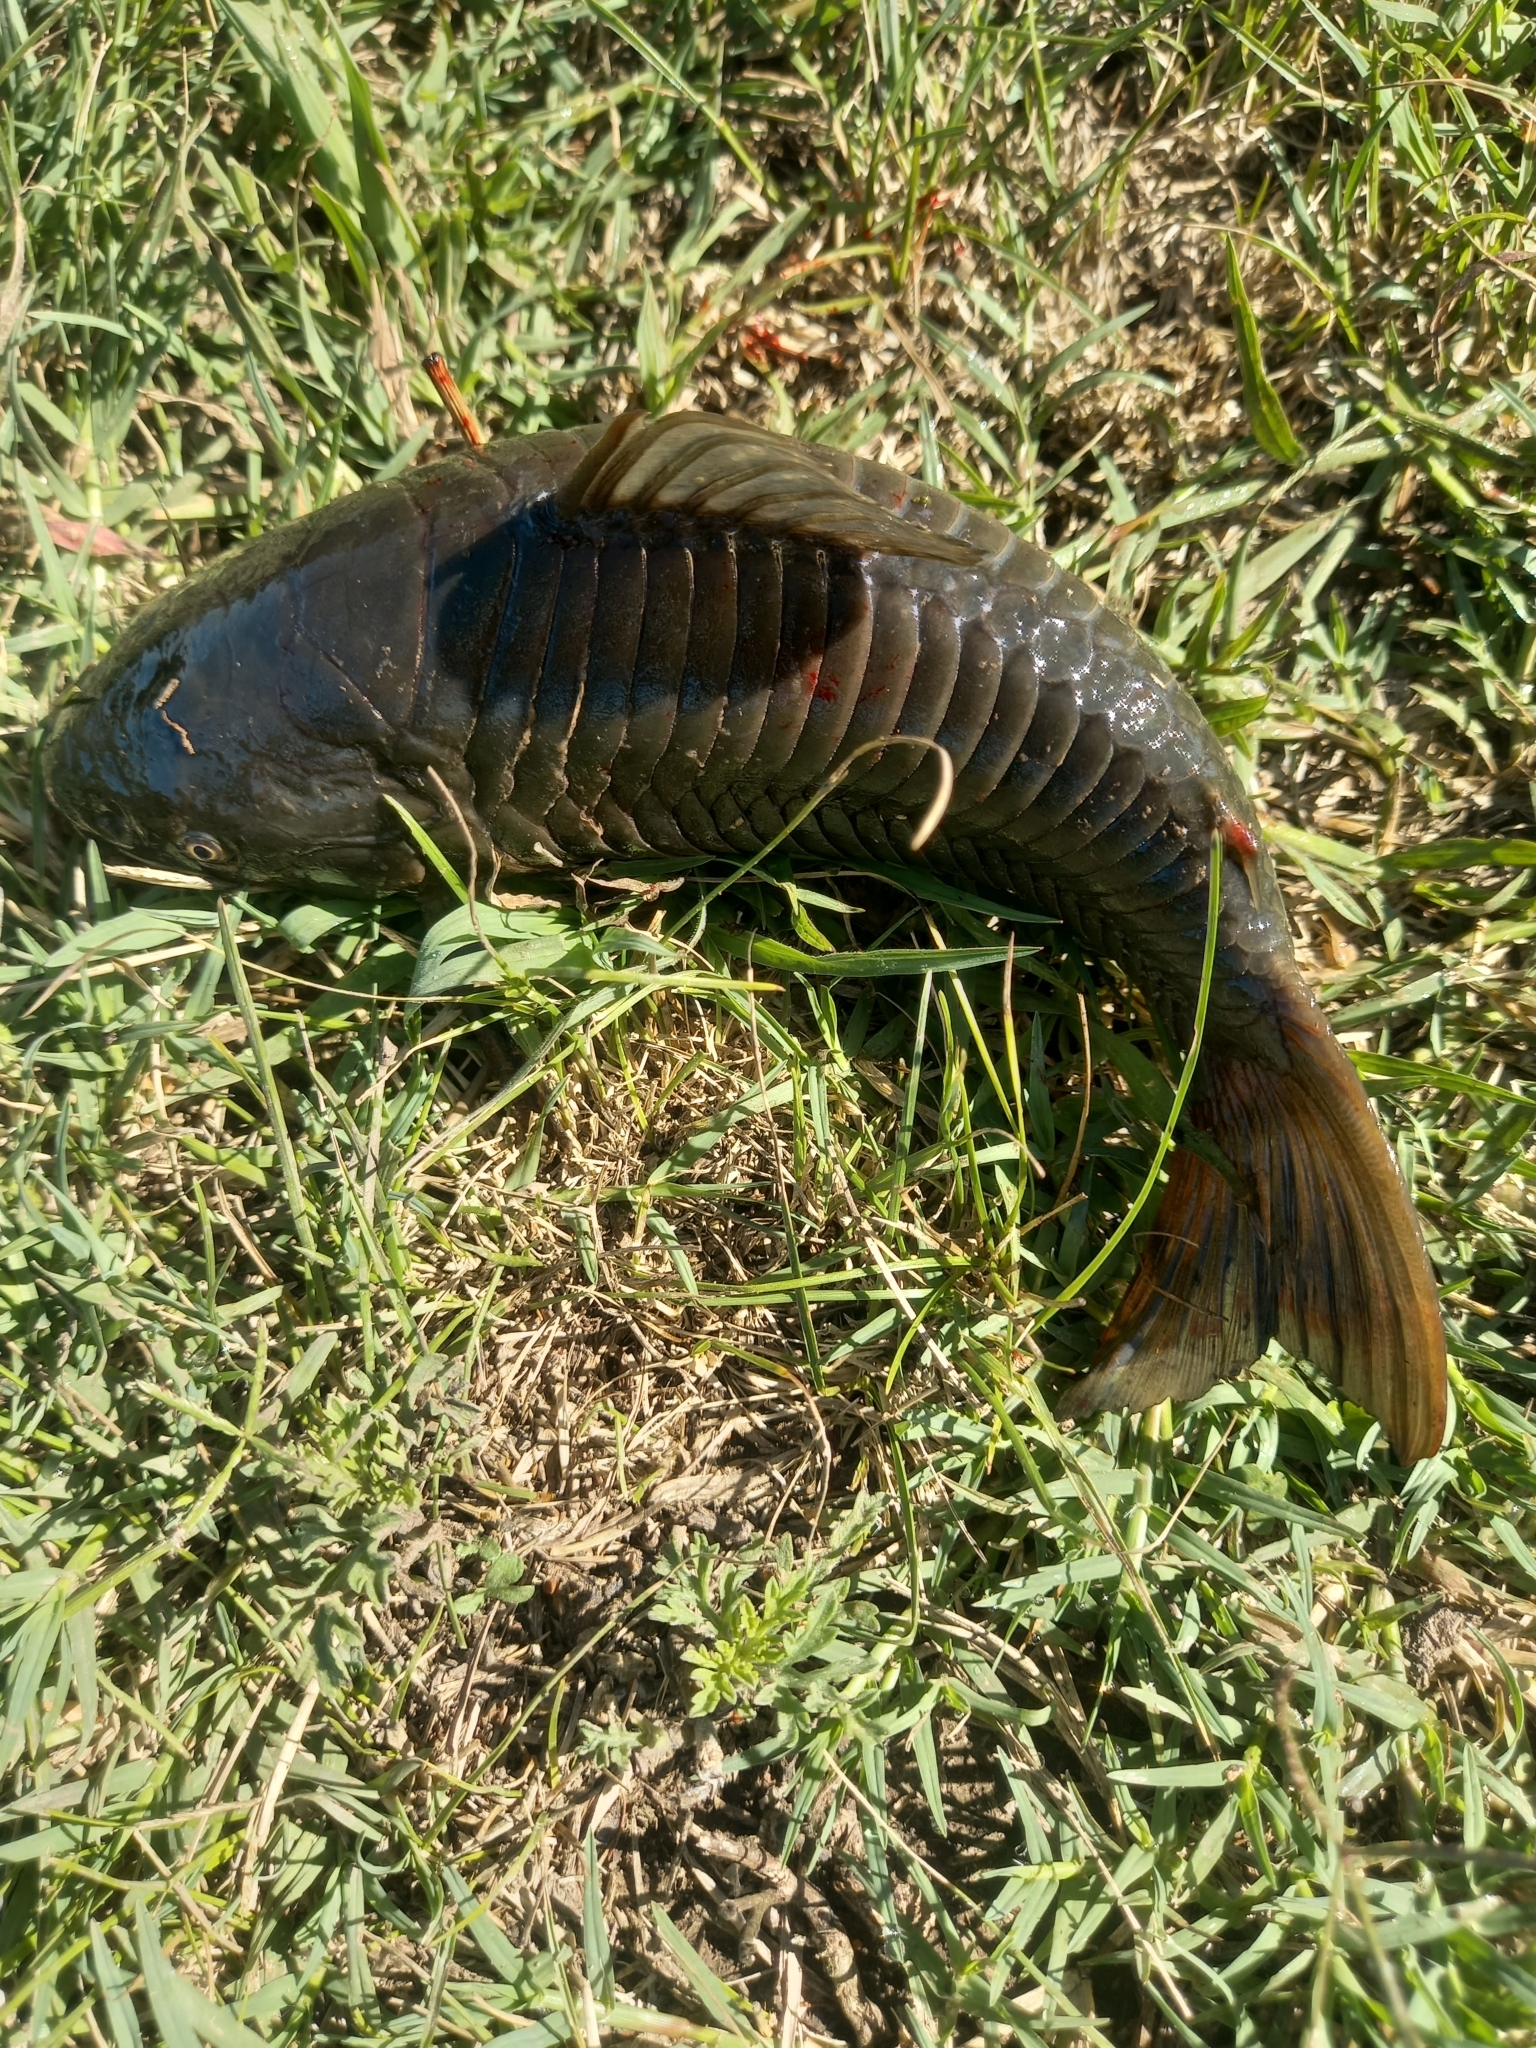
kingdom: Animalia
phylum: Chordata
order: Siluriformes
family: Callichthyidae
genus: Hoplosternum
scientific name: Hoplosternum littorale
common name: Brown hoplo
